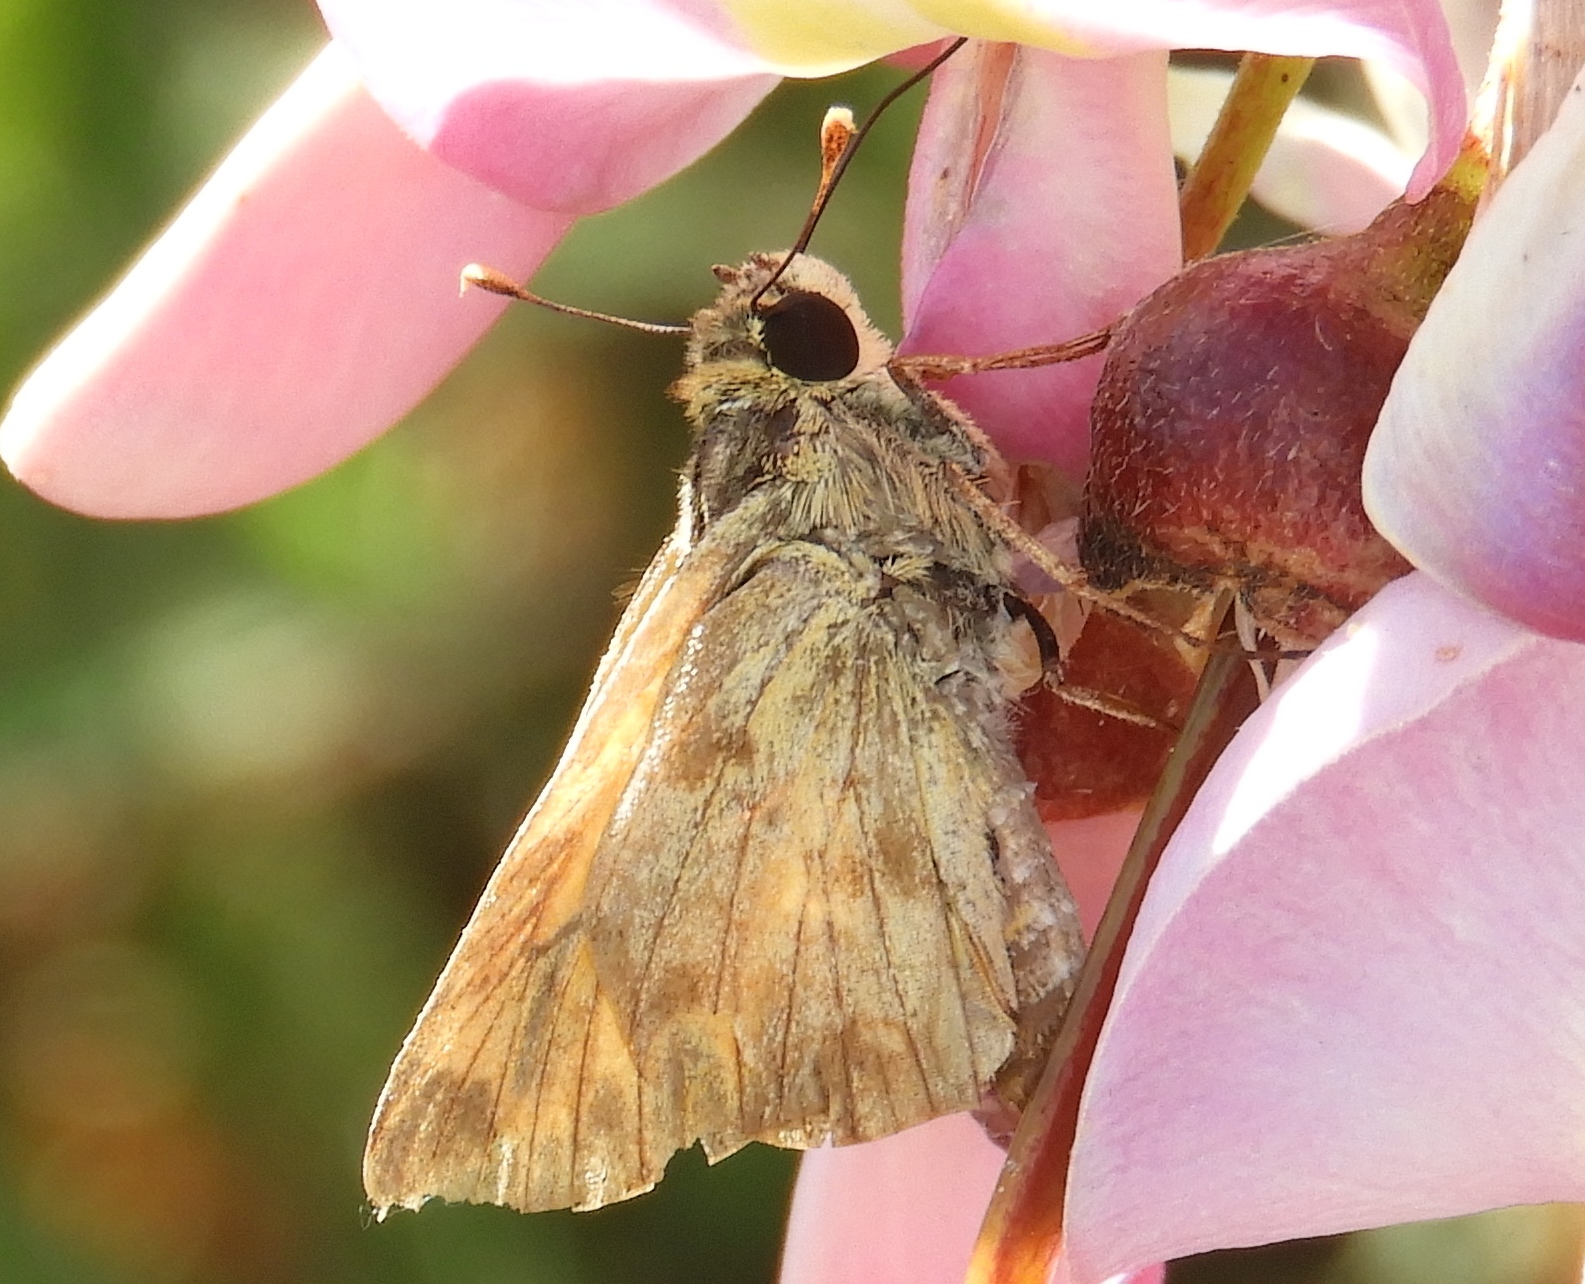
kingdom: Animalia
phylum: Arthropoda
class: Insecta
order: Lepidoptera
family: Hesperiidae
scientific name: Hesperiidae
